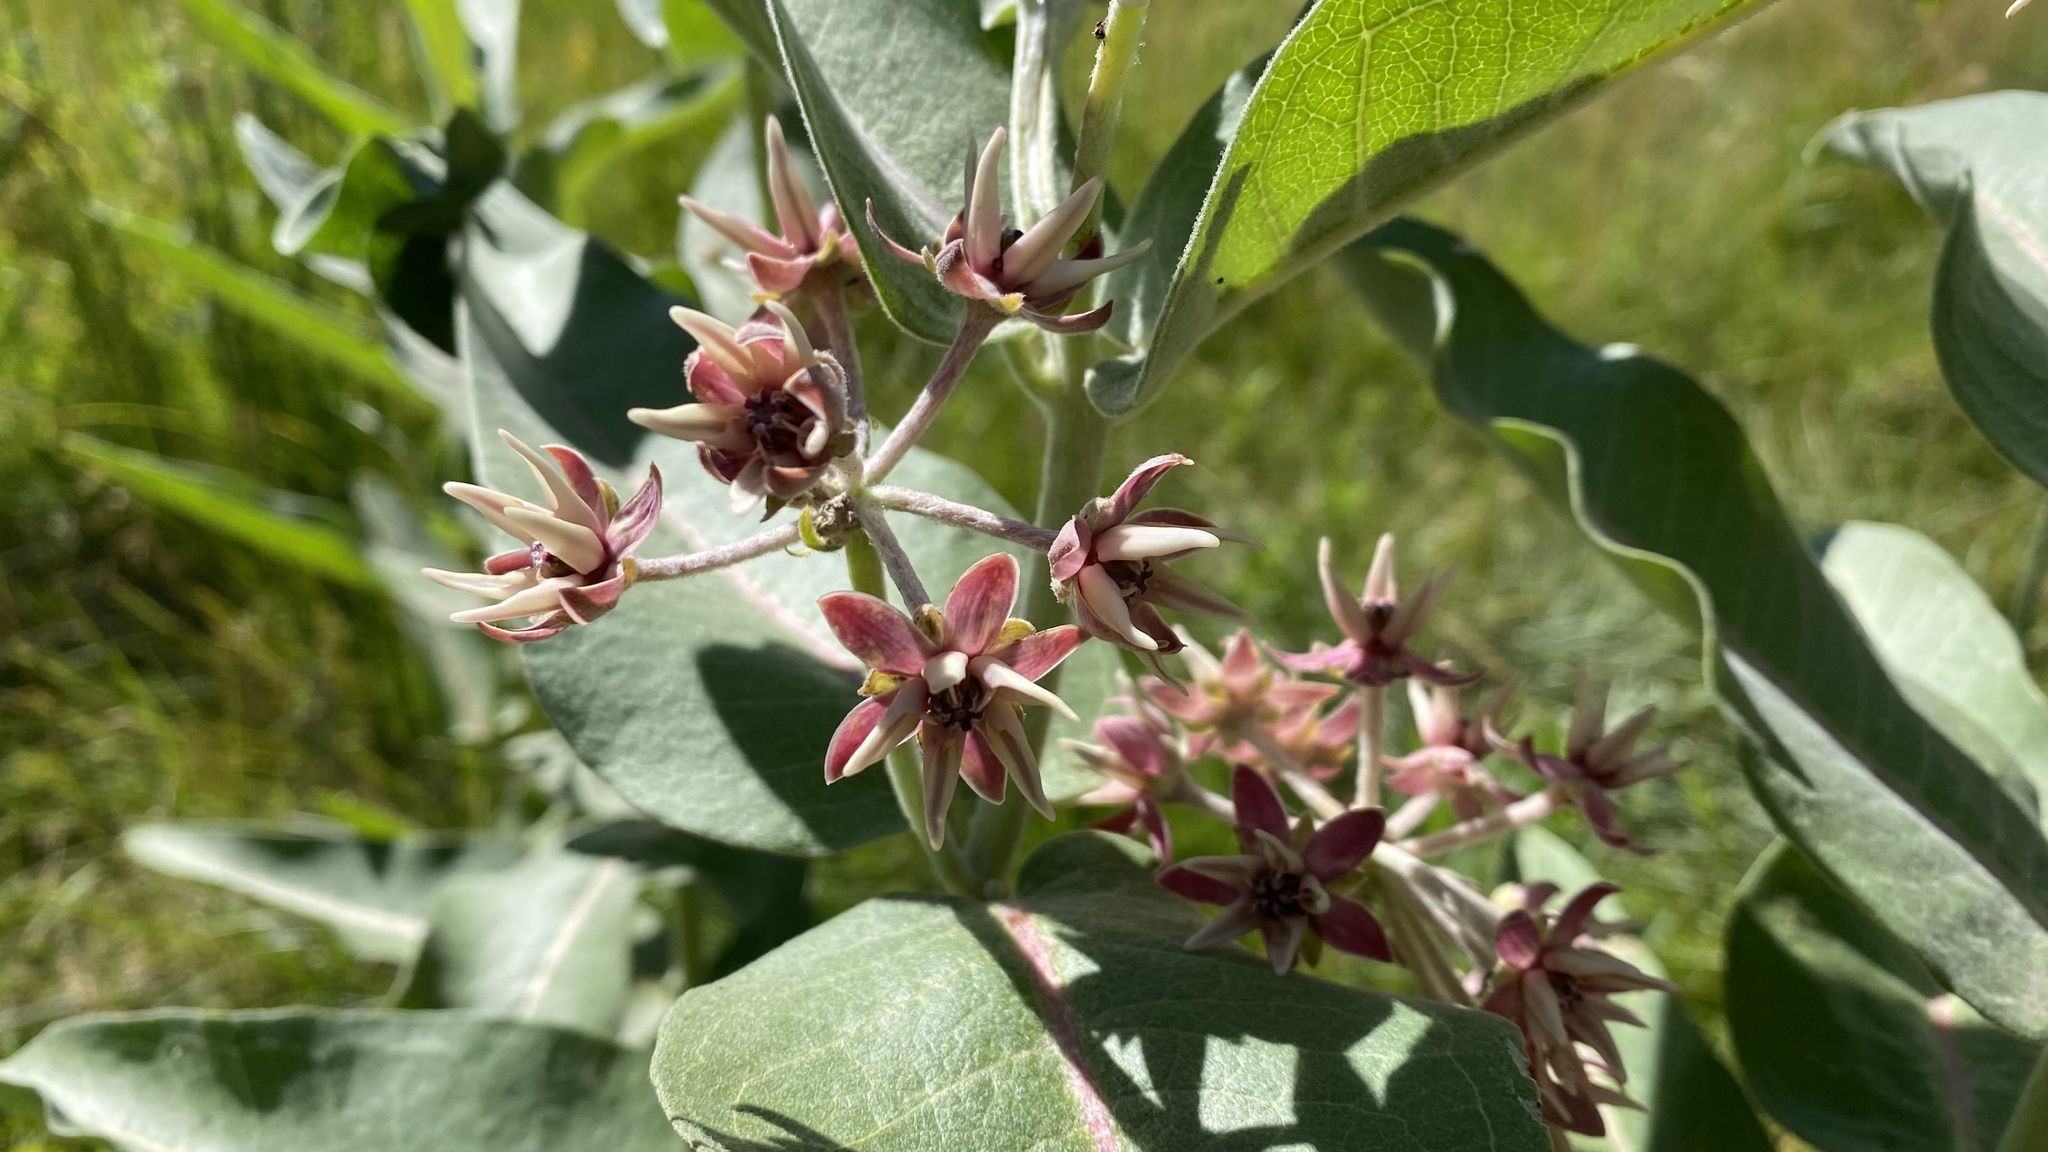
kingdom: Plantae
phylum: Tracheophyta
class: Magnoliopsida
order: Gentianales
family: Apocynaceae
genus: Asclepias
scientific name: Asclepias speciosa
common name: Showy milkweed
